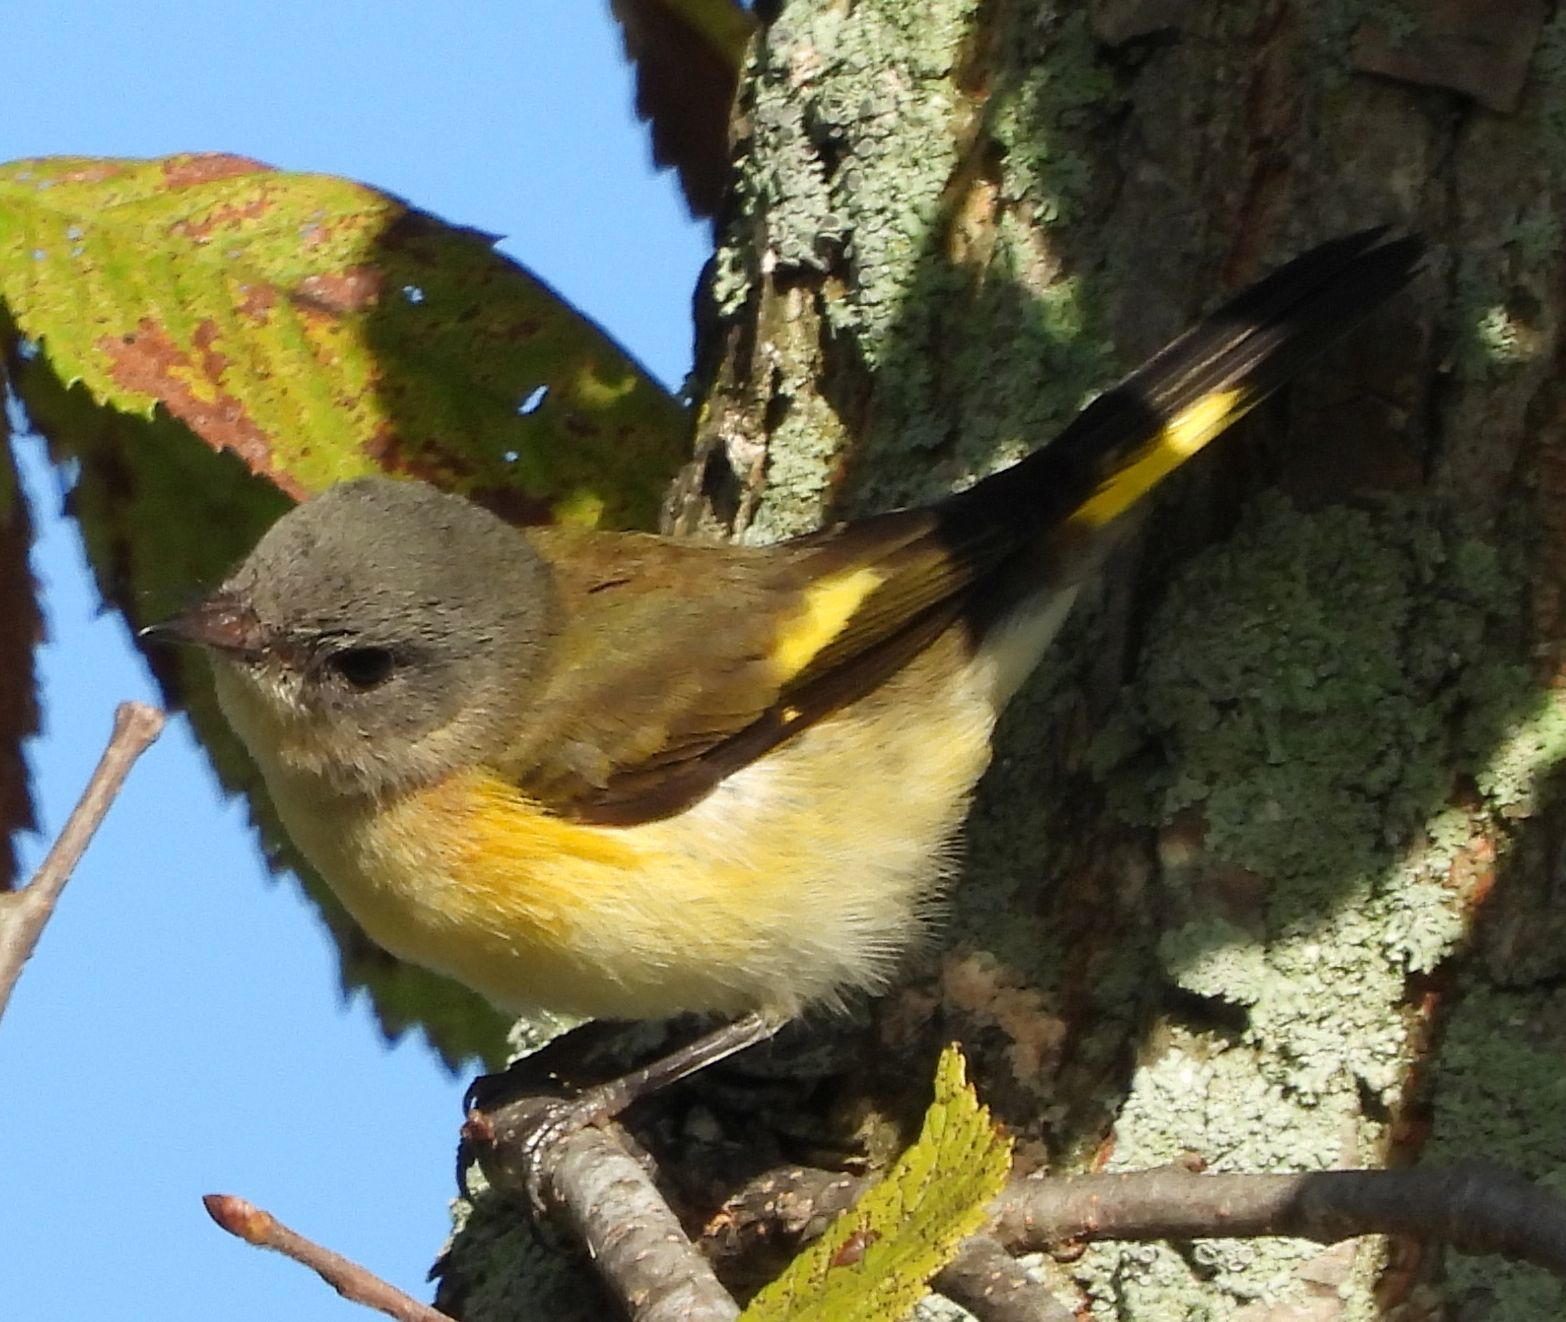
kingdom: Animalia
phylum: Chordata
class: Aves
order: Passeriformes
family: Parulidae
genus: Setophaga
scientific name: Setophaga ruticilla
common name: American redstart
